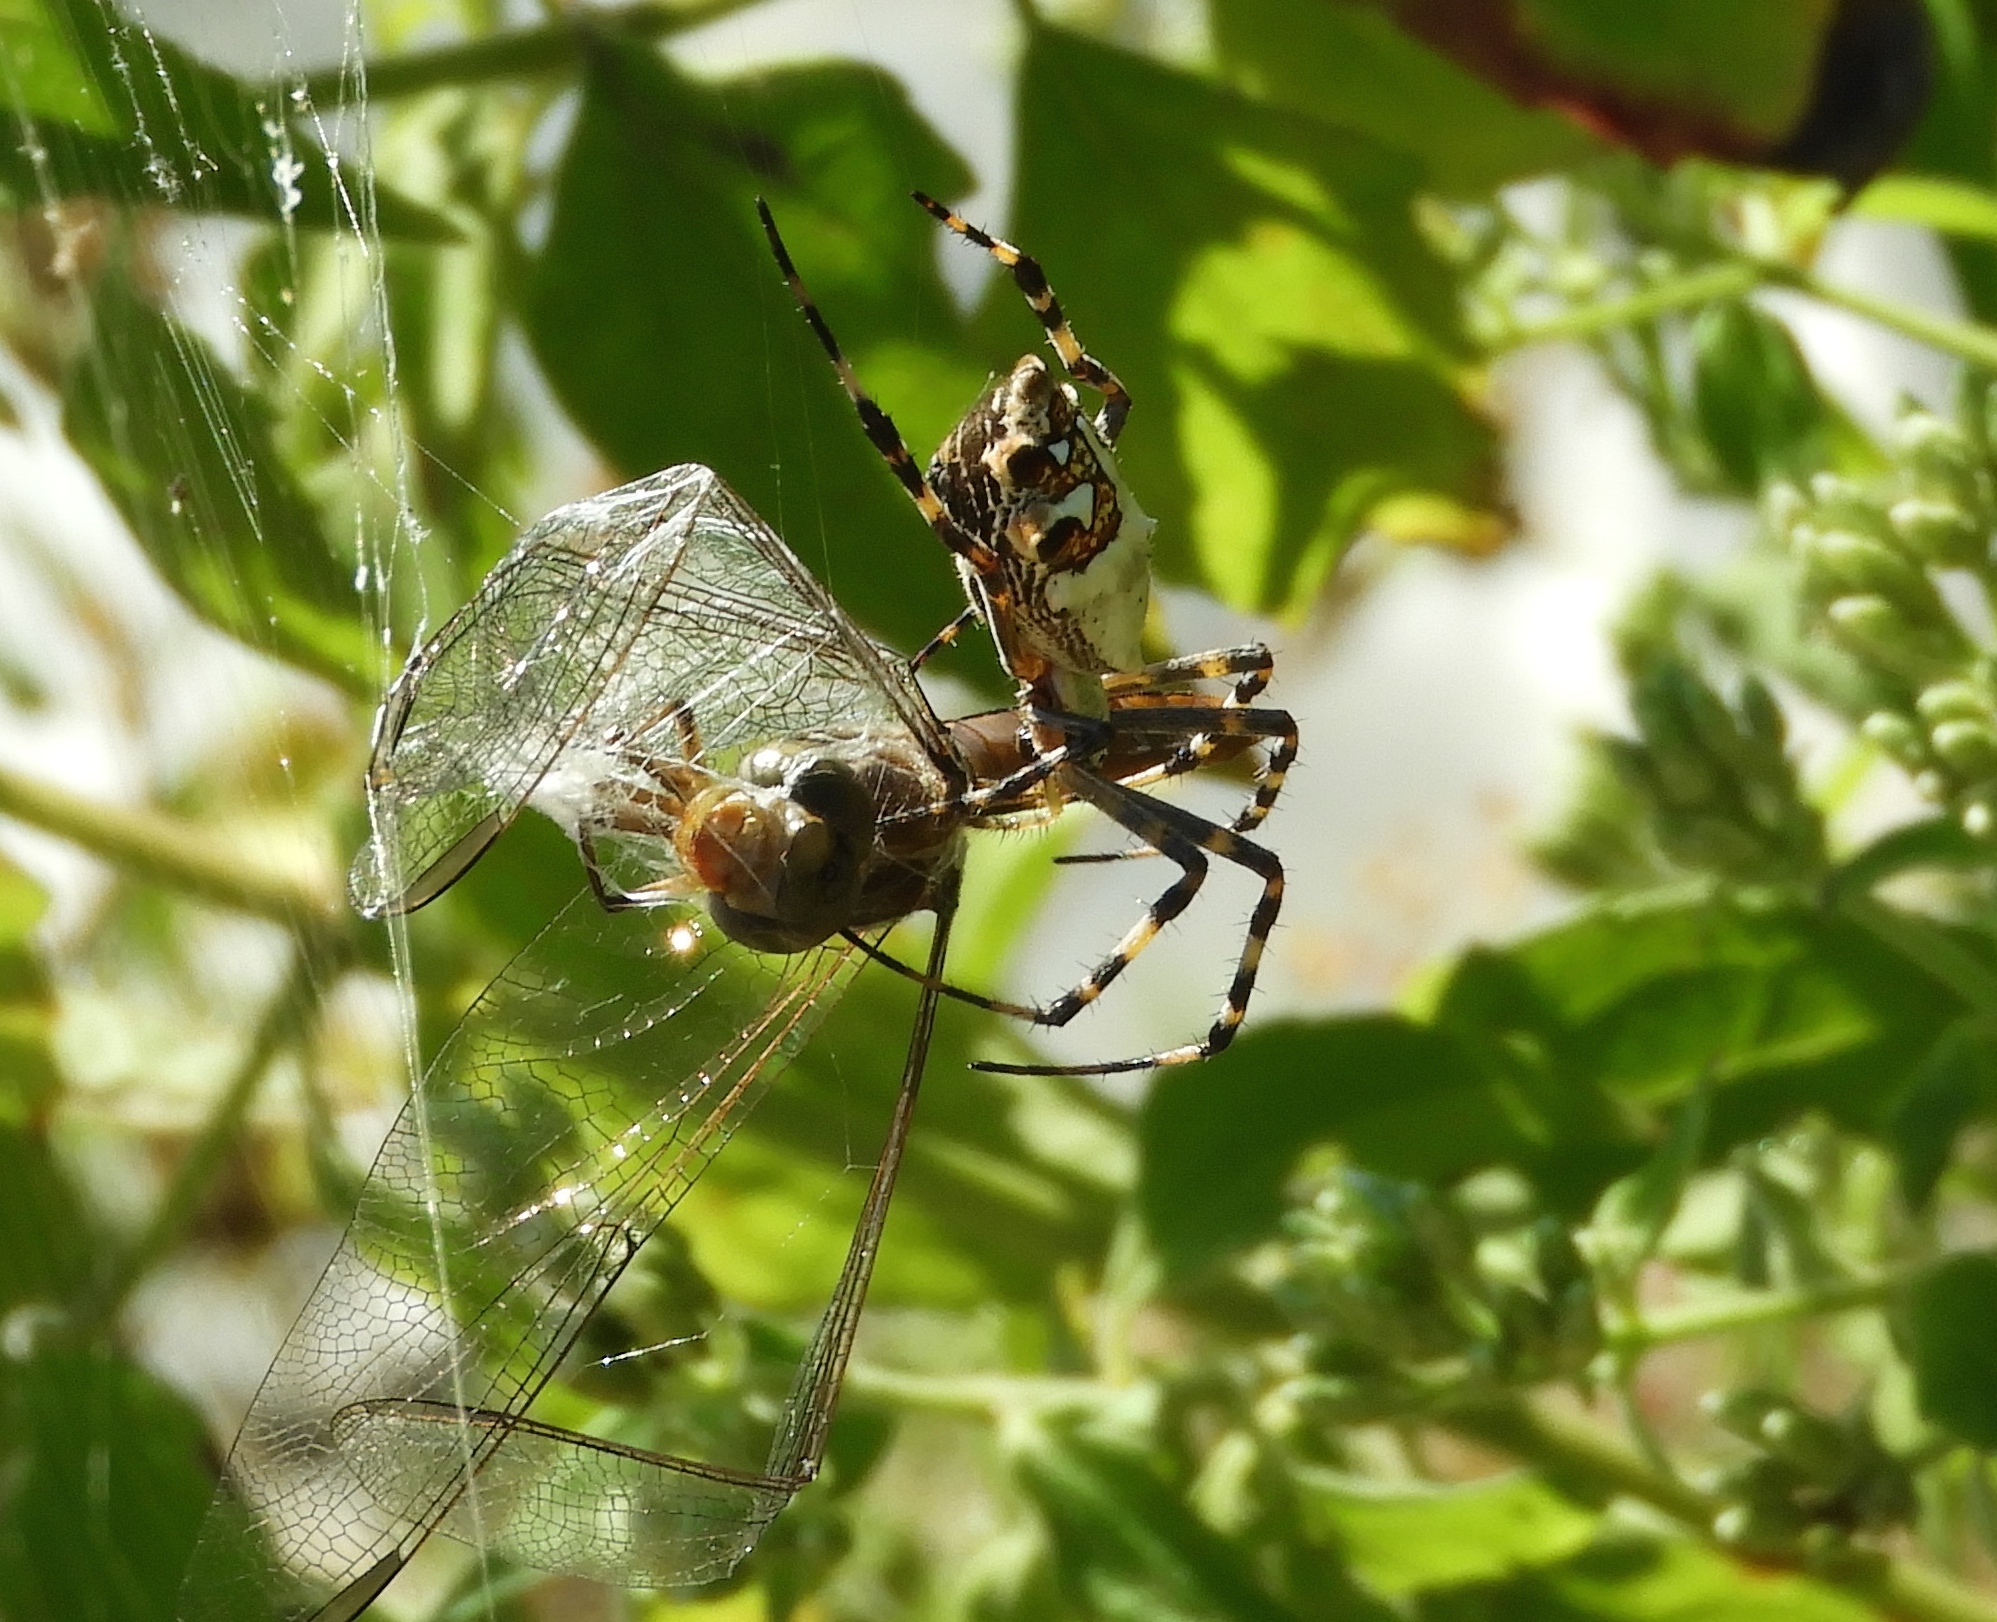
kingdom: Animalia
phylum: Arthropoda
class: Arachnida
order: Araneae
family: Araneidae
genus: Argiope
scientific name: Argiope argentata
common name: Orb weavers
